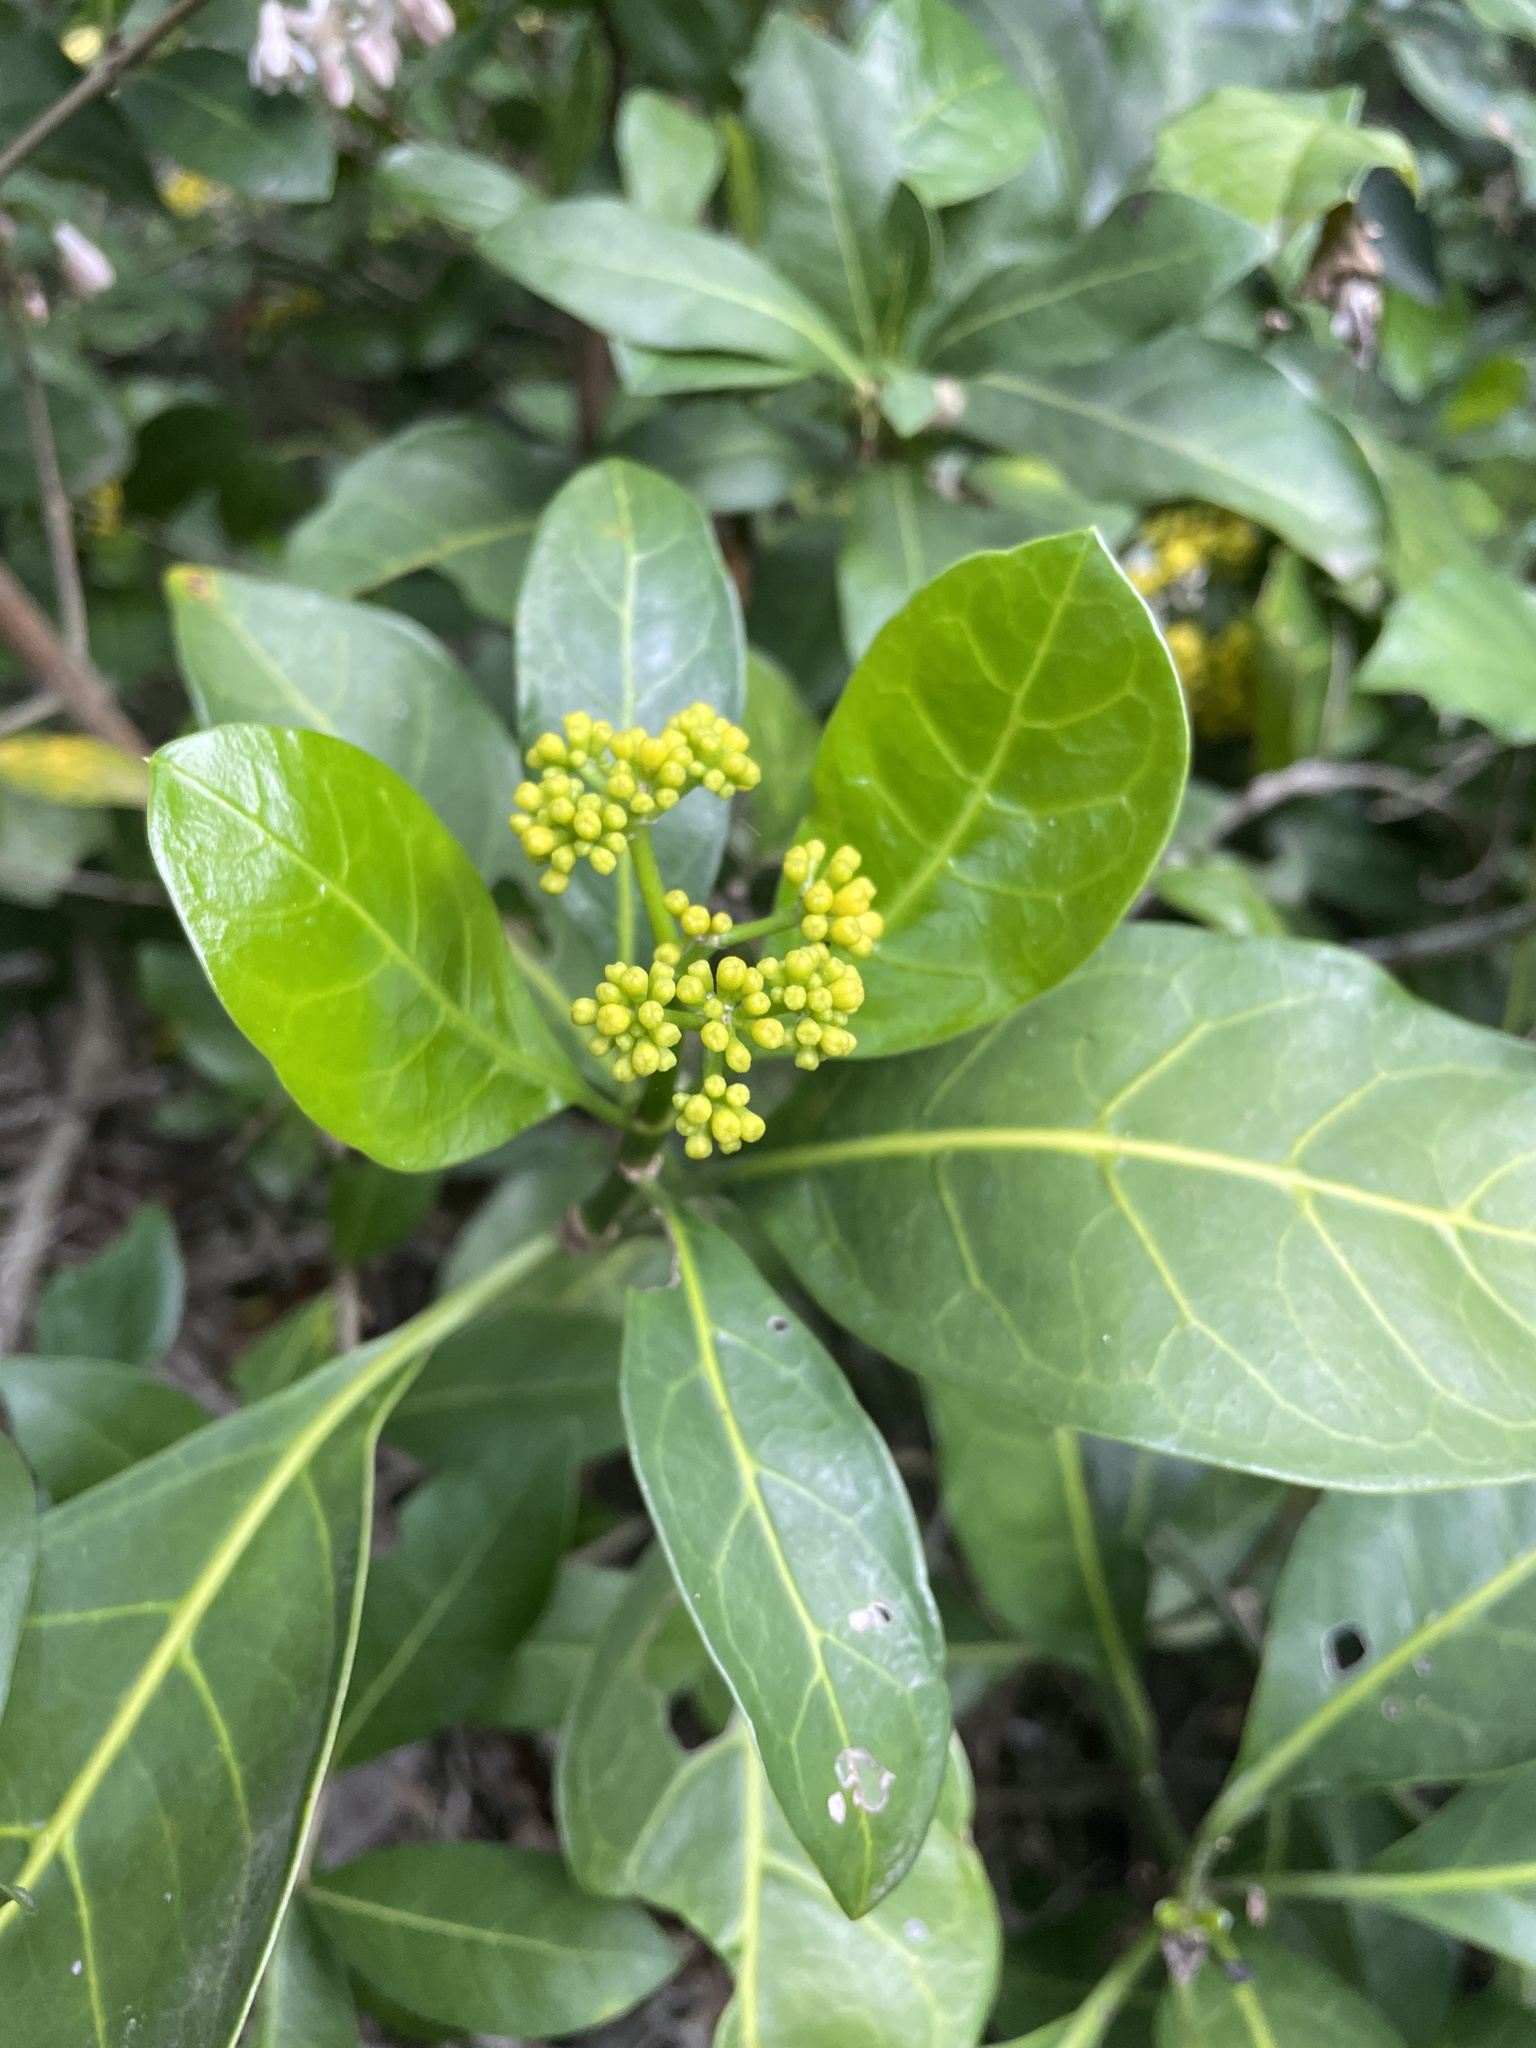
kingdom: Plantae
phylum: Tracheophyta
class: Magnoliopsida
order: Gentianales
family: Rubiaceae
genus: Psychotria
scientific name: Psychotria capensis
